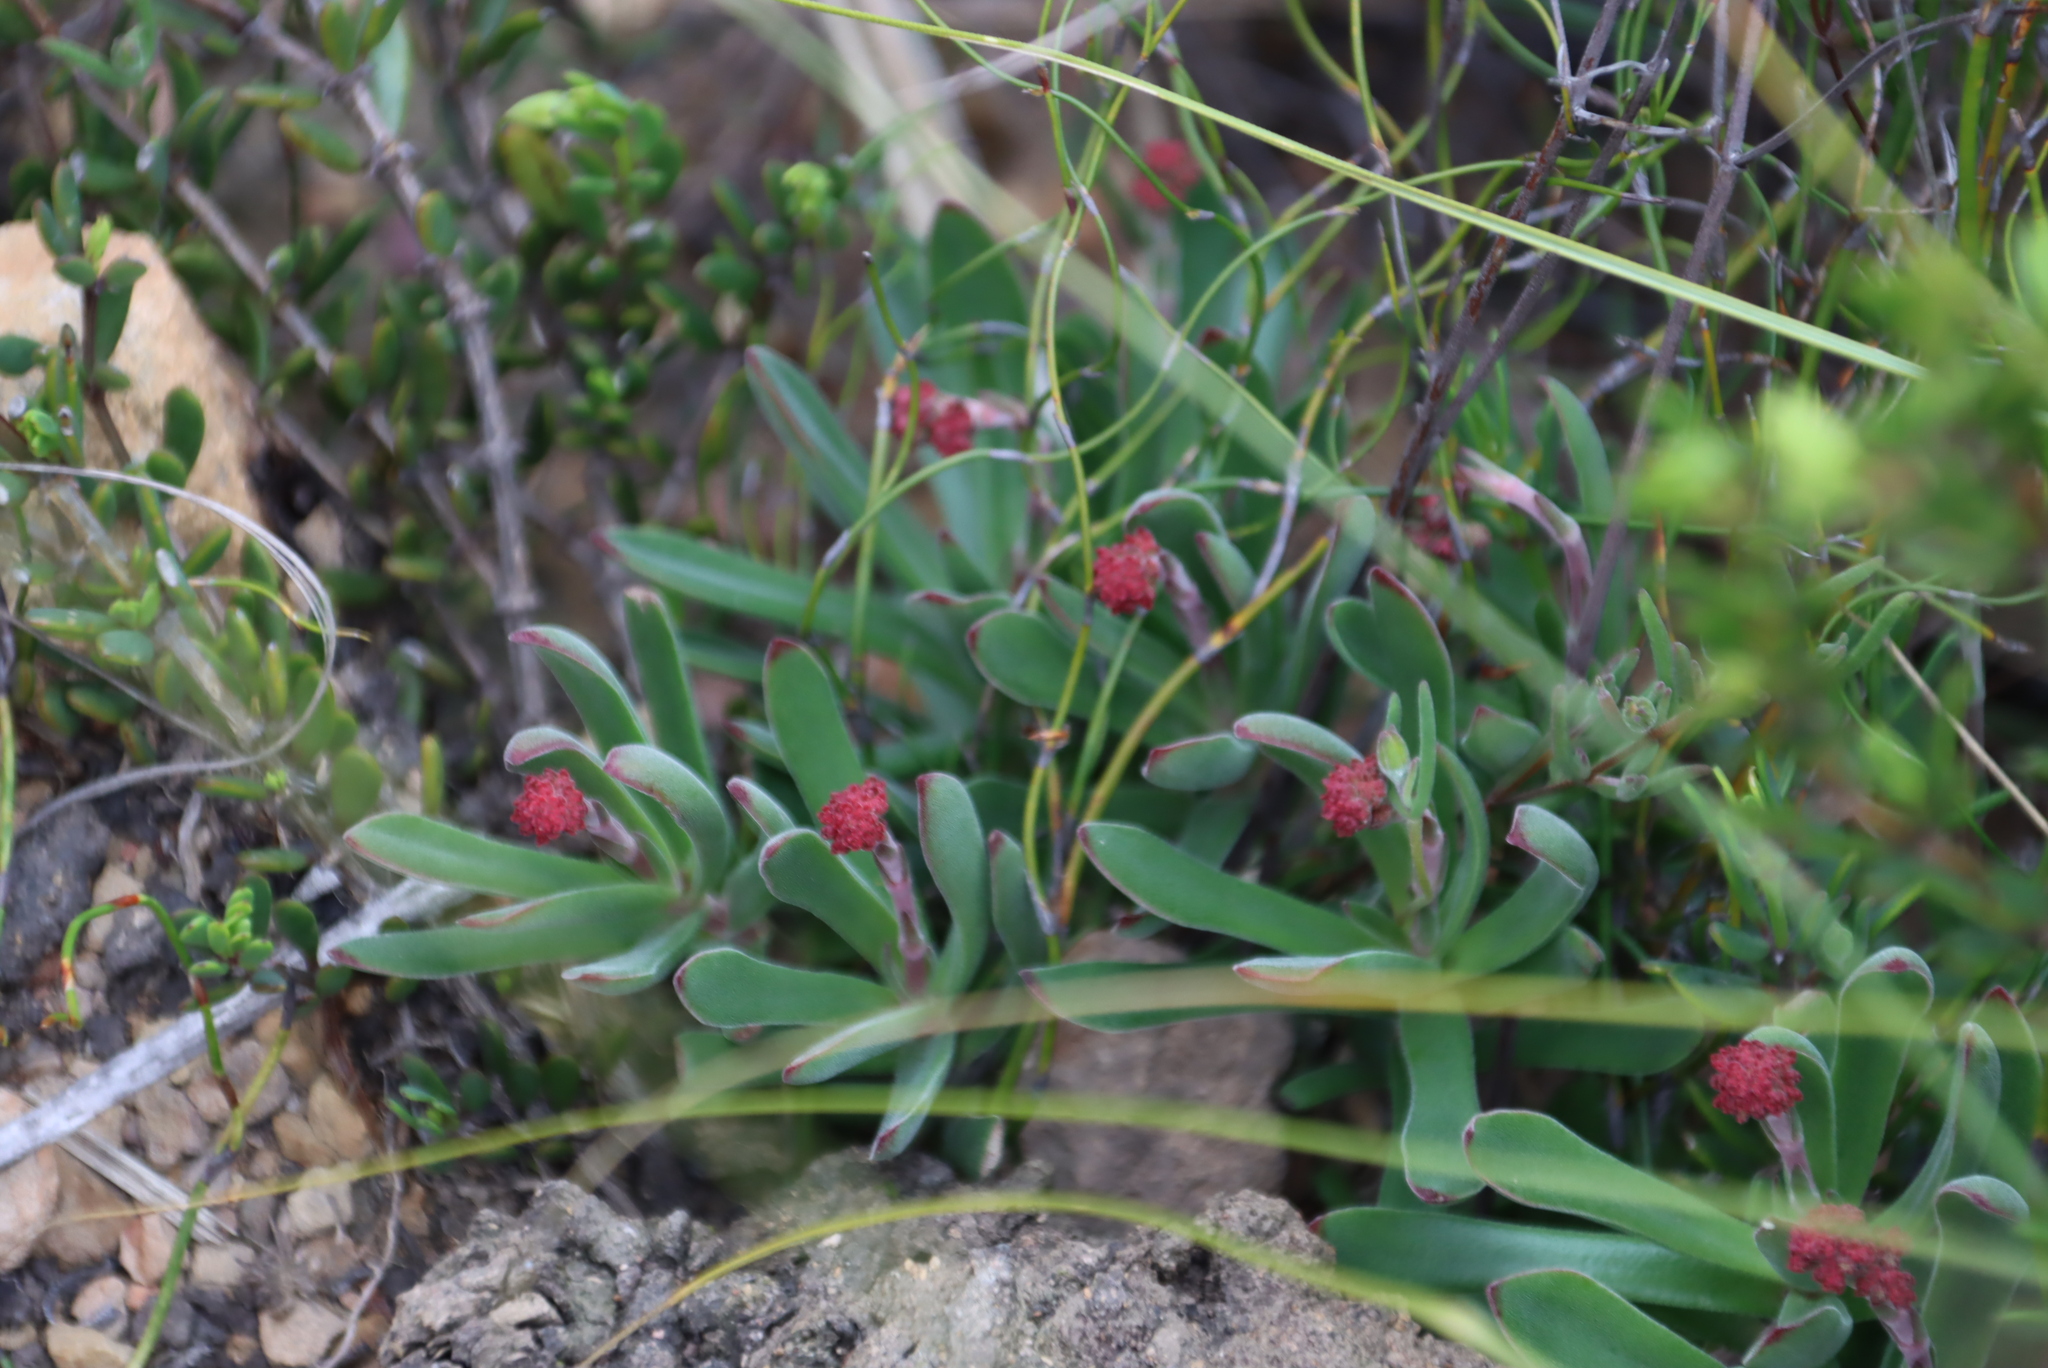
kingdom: Plantae
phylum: Tracheophyta
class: Magnoliopsida
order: Saxifragales
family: Crassulaceae
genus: Crassula
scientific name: Crassula pubescens
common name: Jersey pigmyweed
